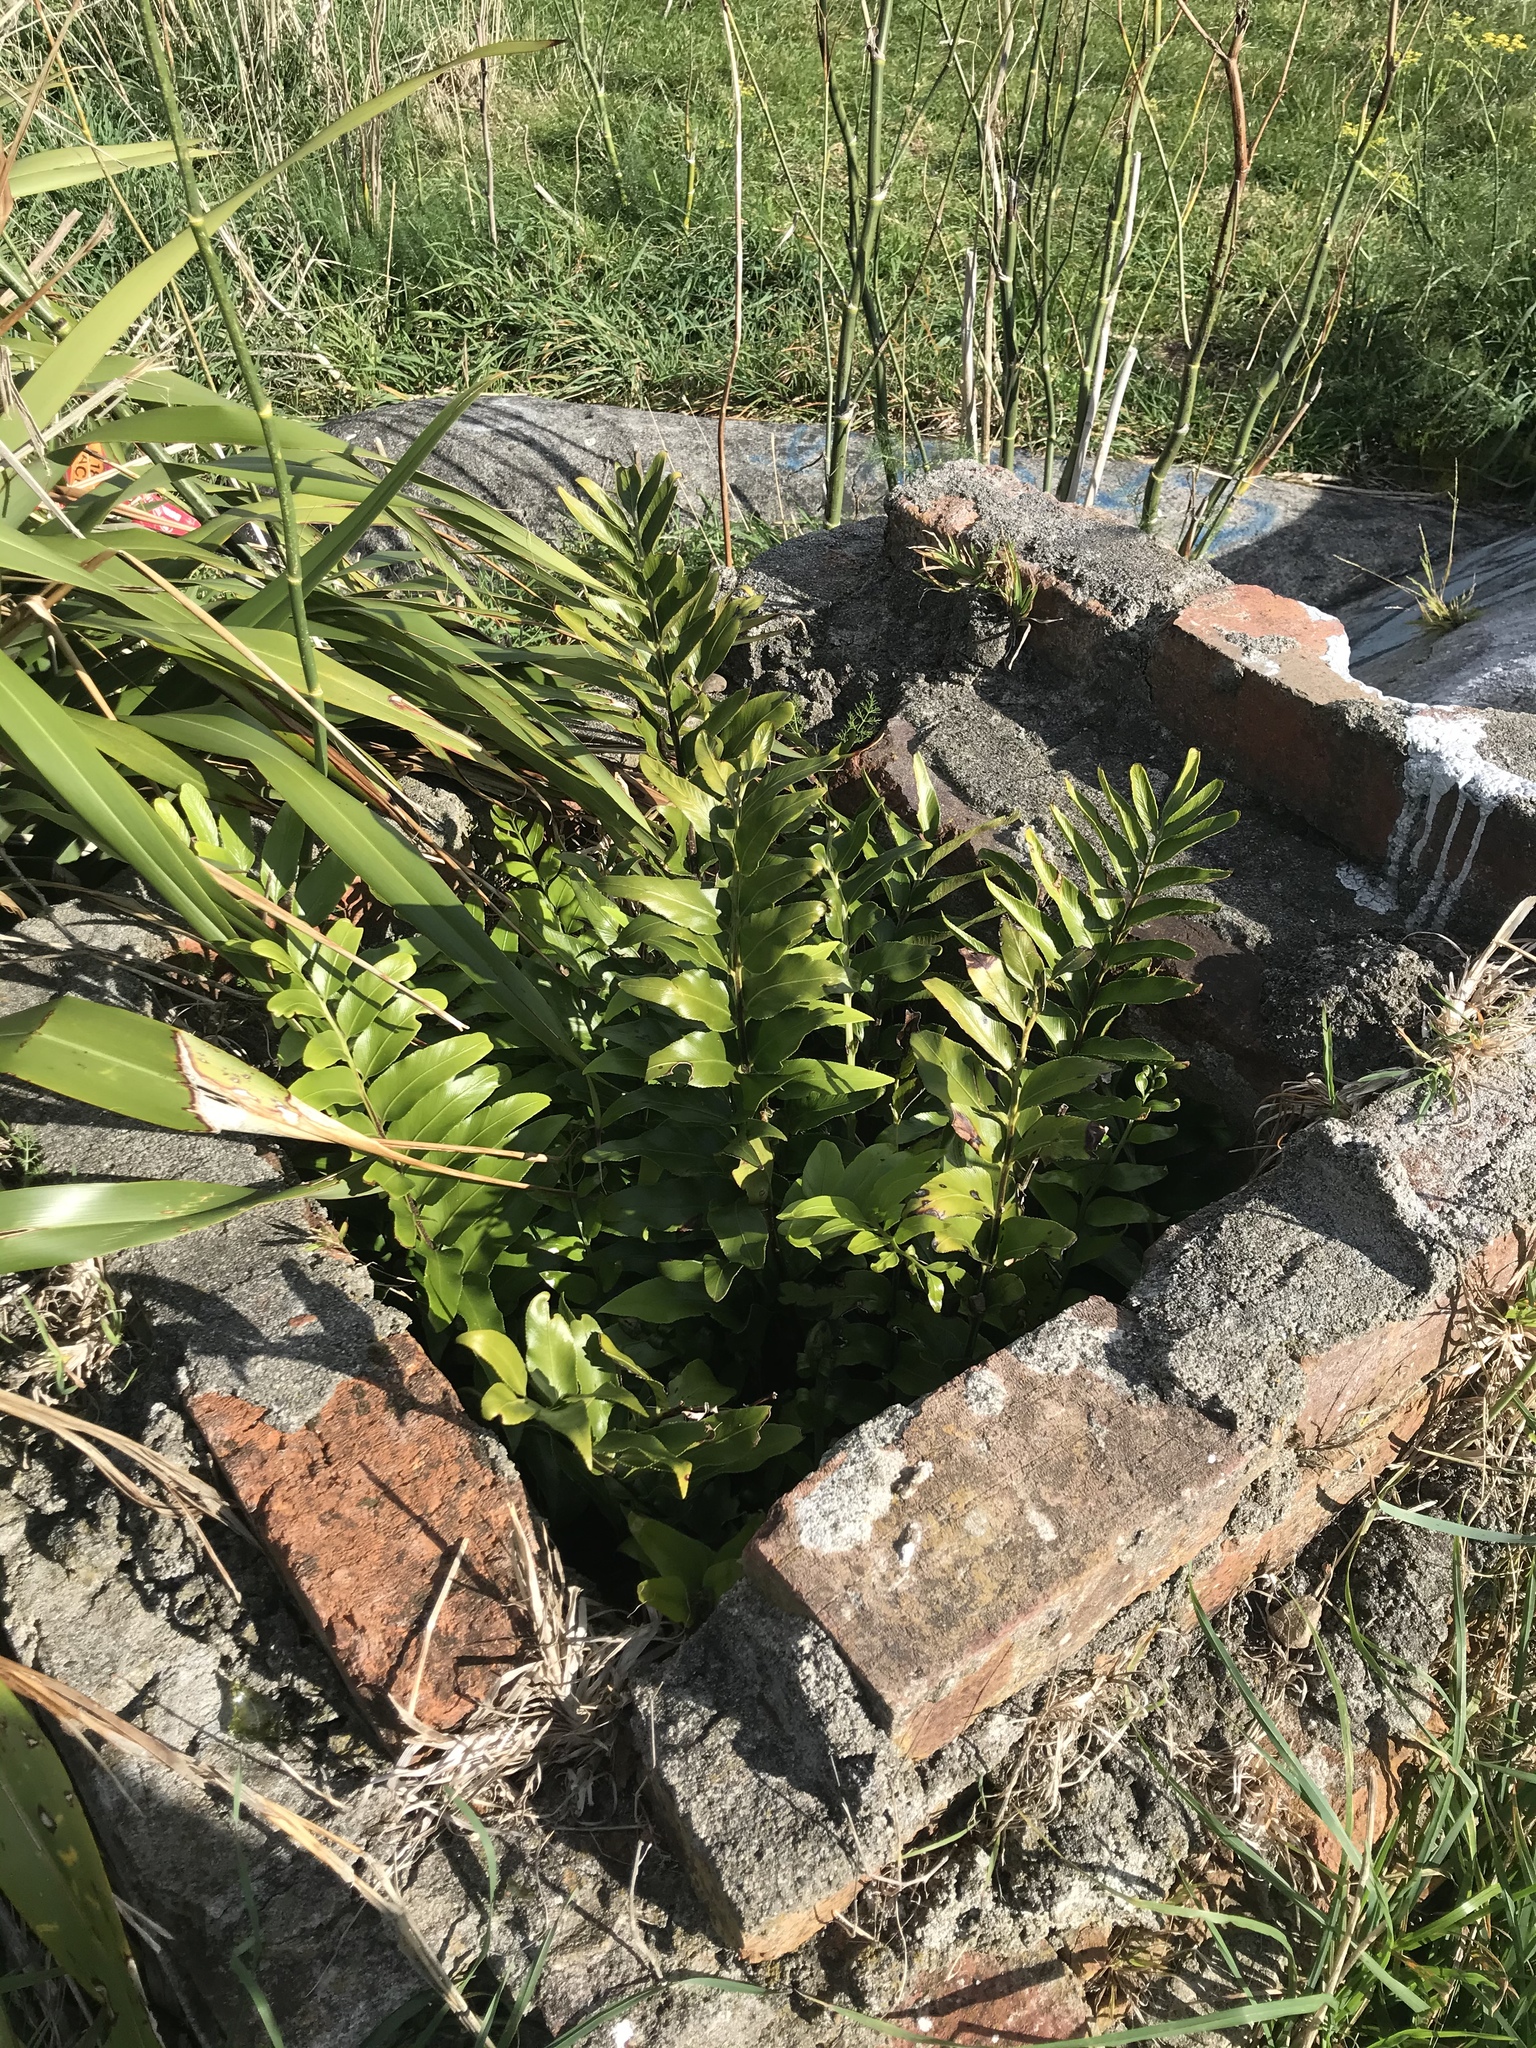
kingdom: Plantae
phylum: Tracheophyta
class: Polypodiopsida
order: Polypodiales
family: Aspleniaceae
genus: Asplenium
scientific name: Asplenium oblongifolium
